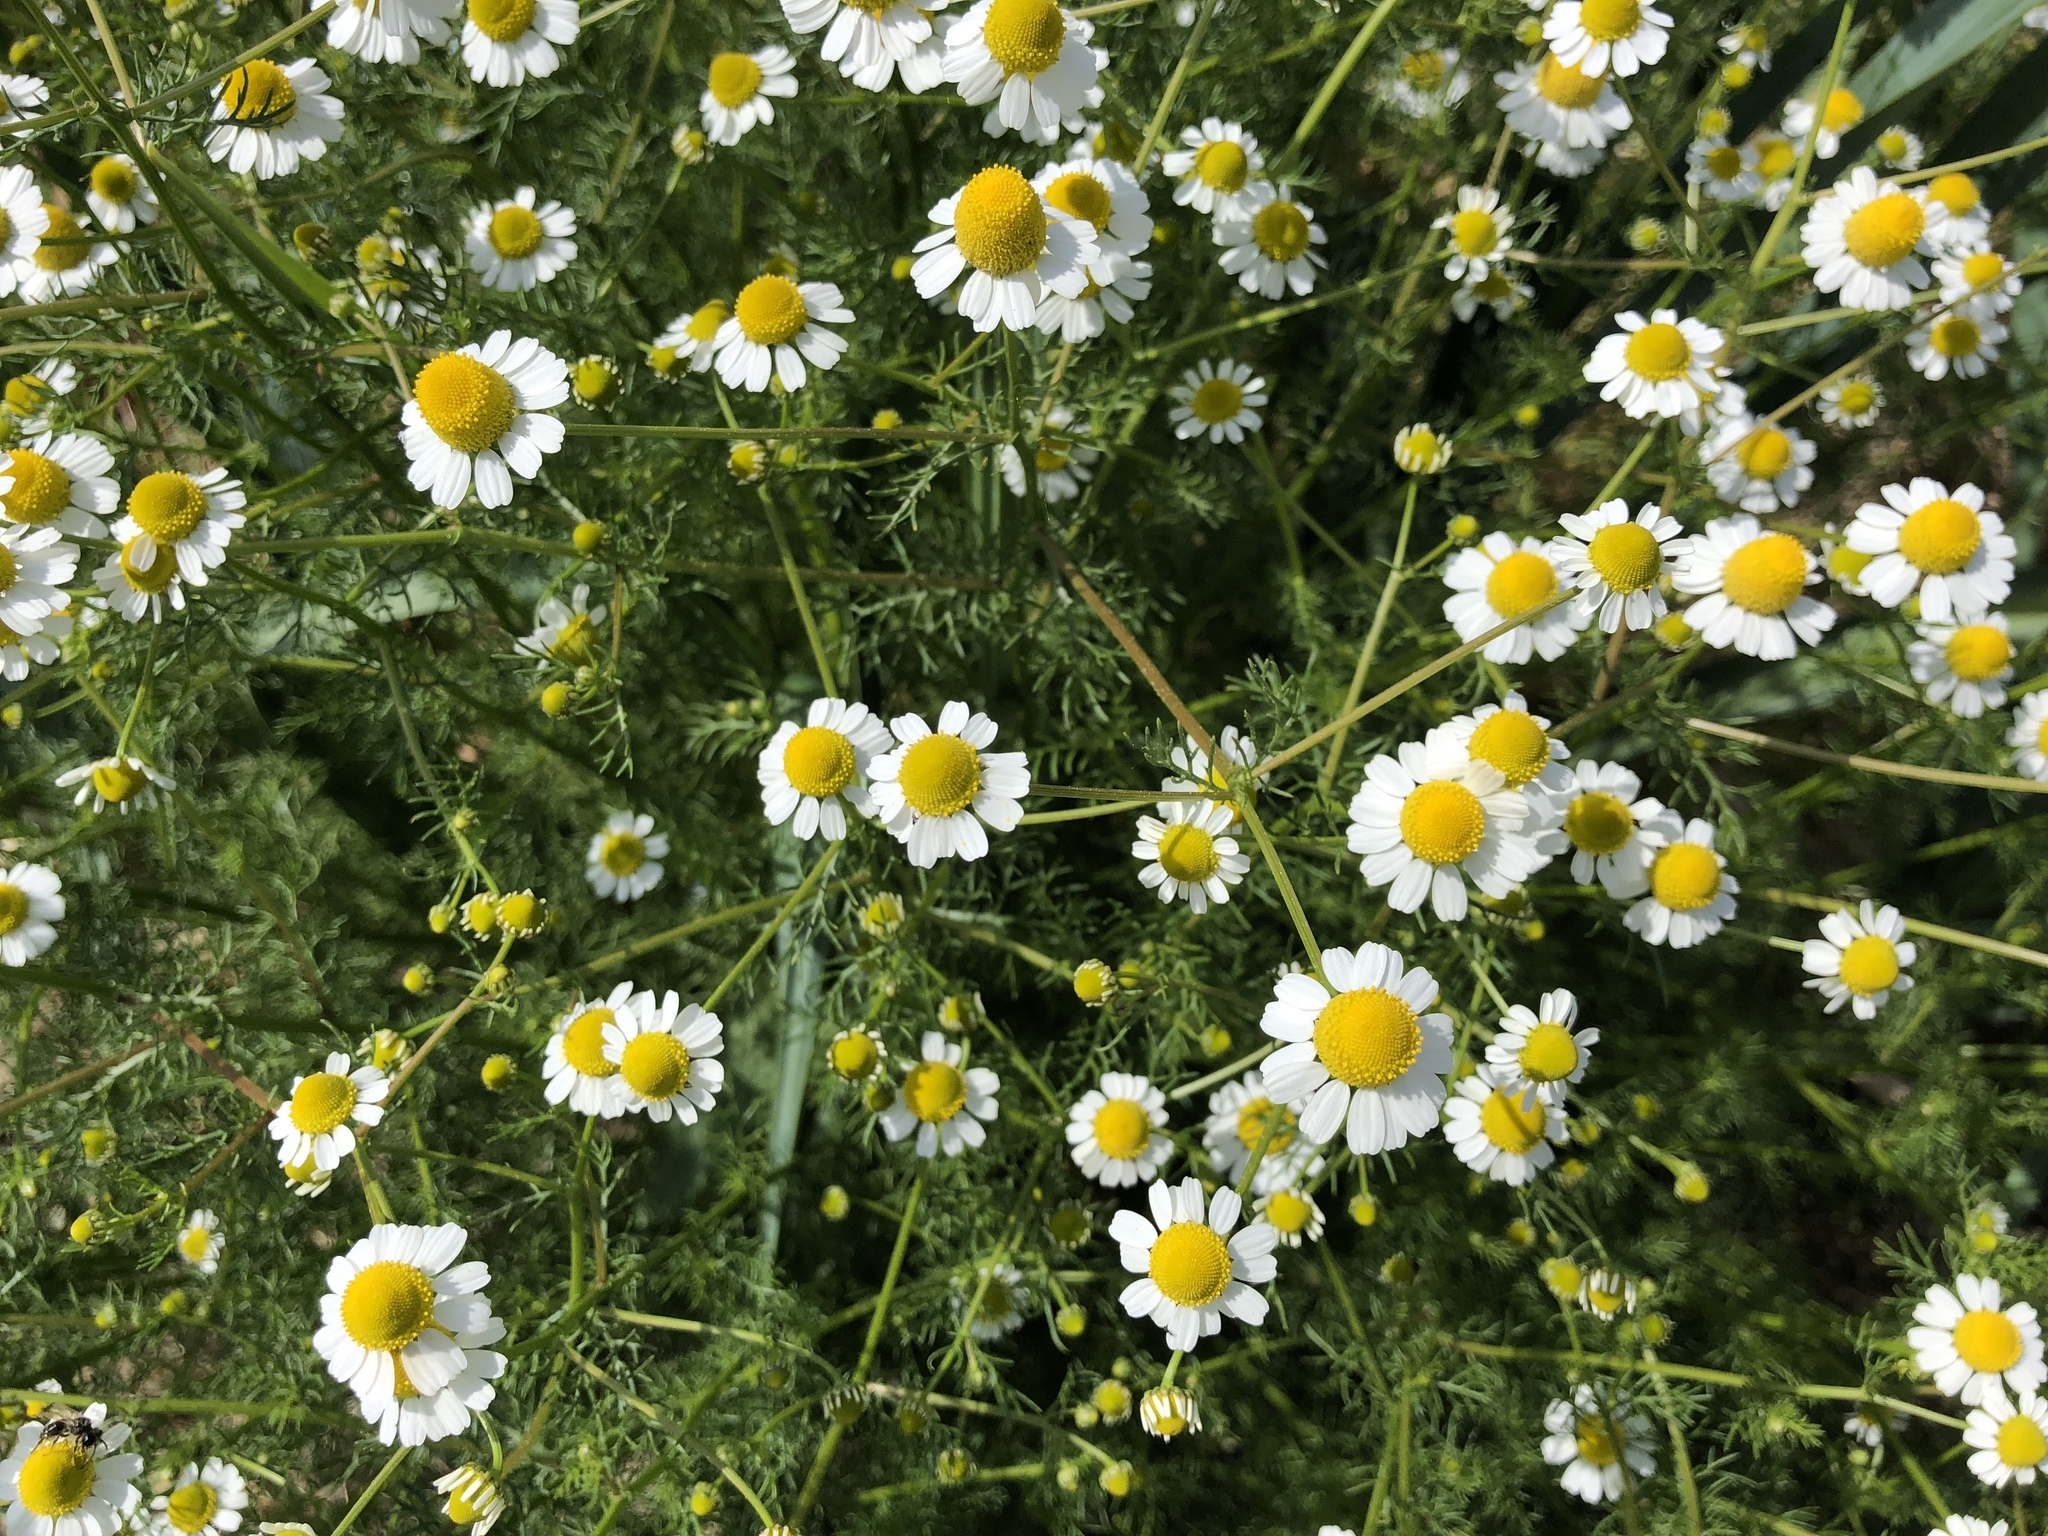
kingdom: Plantae
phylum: Tracheophyta
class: Magnoliopsida
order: Asterales
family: Asteraceae
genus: Matricaria
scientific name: Matricaria chamomilla
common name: Scented mayweed
